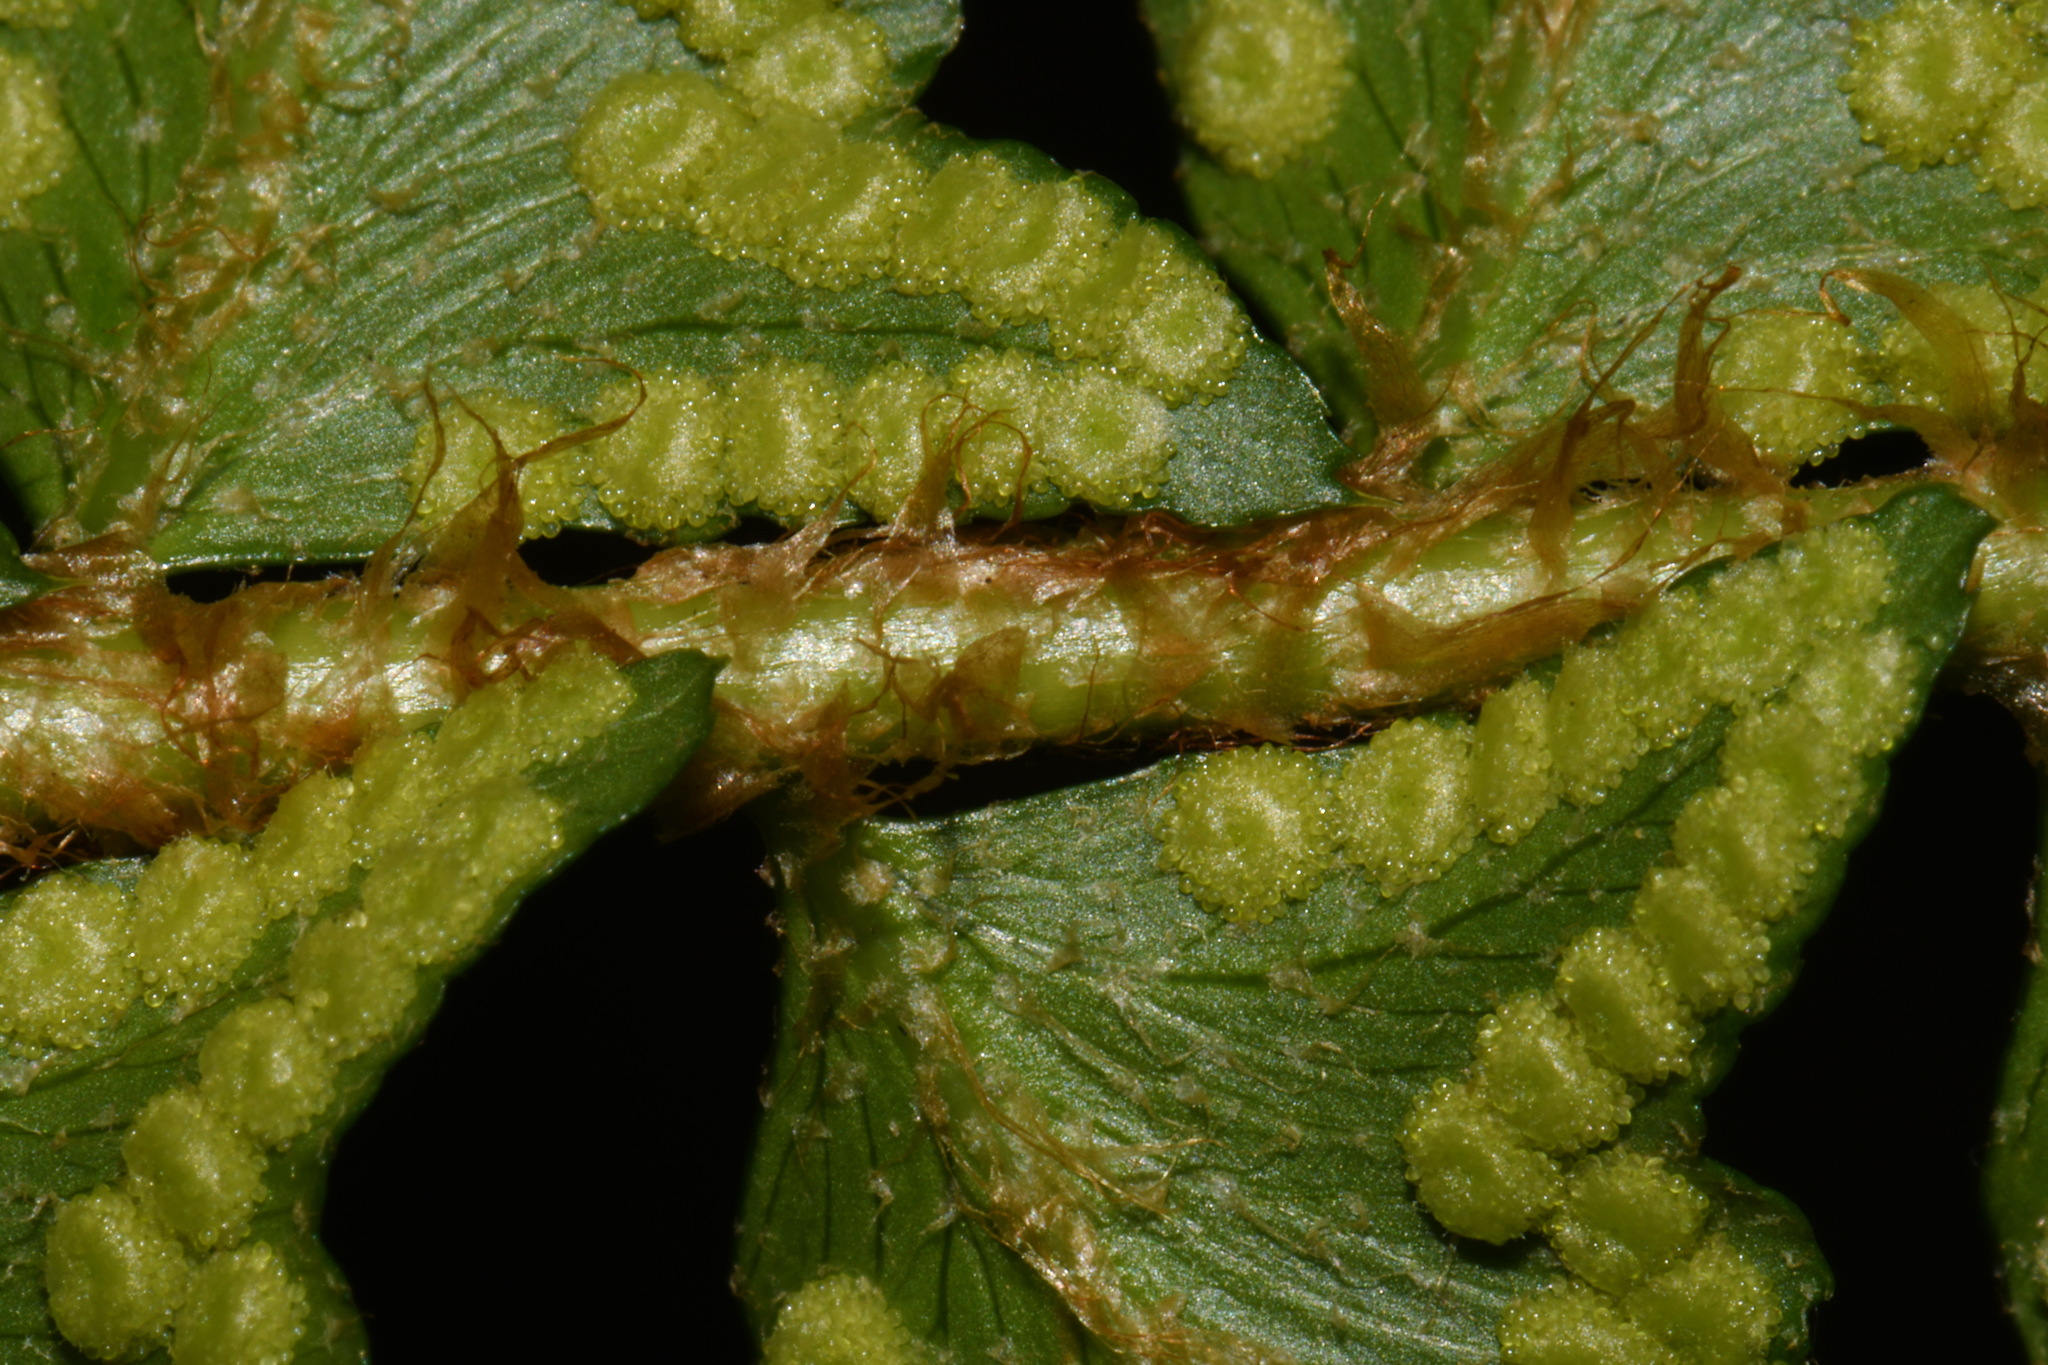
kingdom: Plantae
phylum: Tracheophyta
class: Polypodiopsida
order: Polypodiales
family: Dryopteridaceae
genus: Polystichum
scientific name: Polystichum munitum
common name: Western sword-fern
